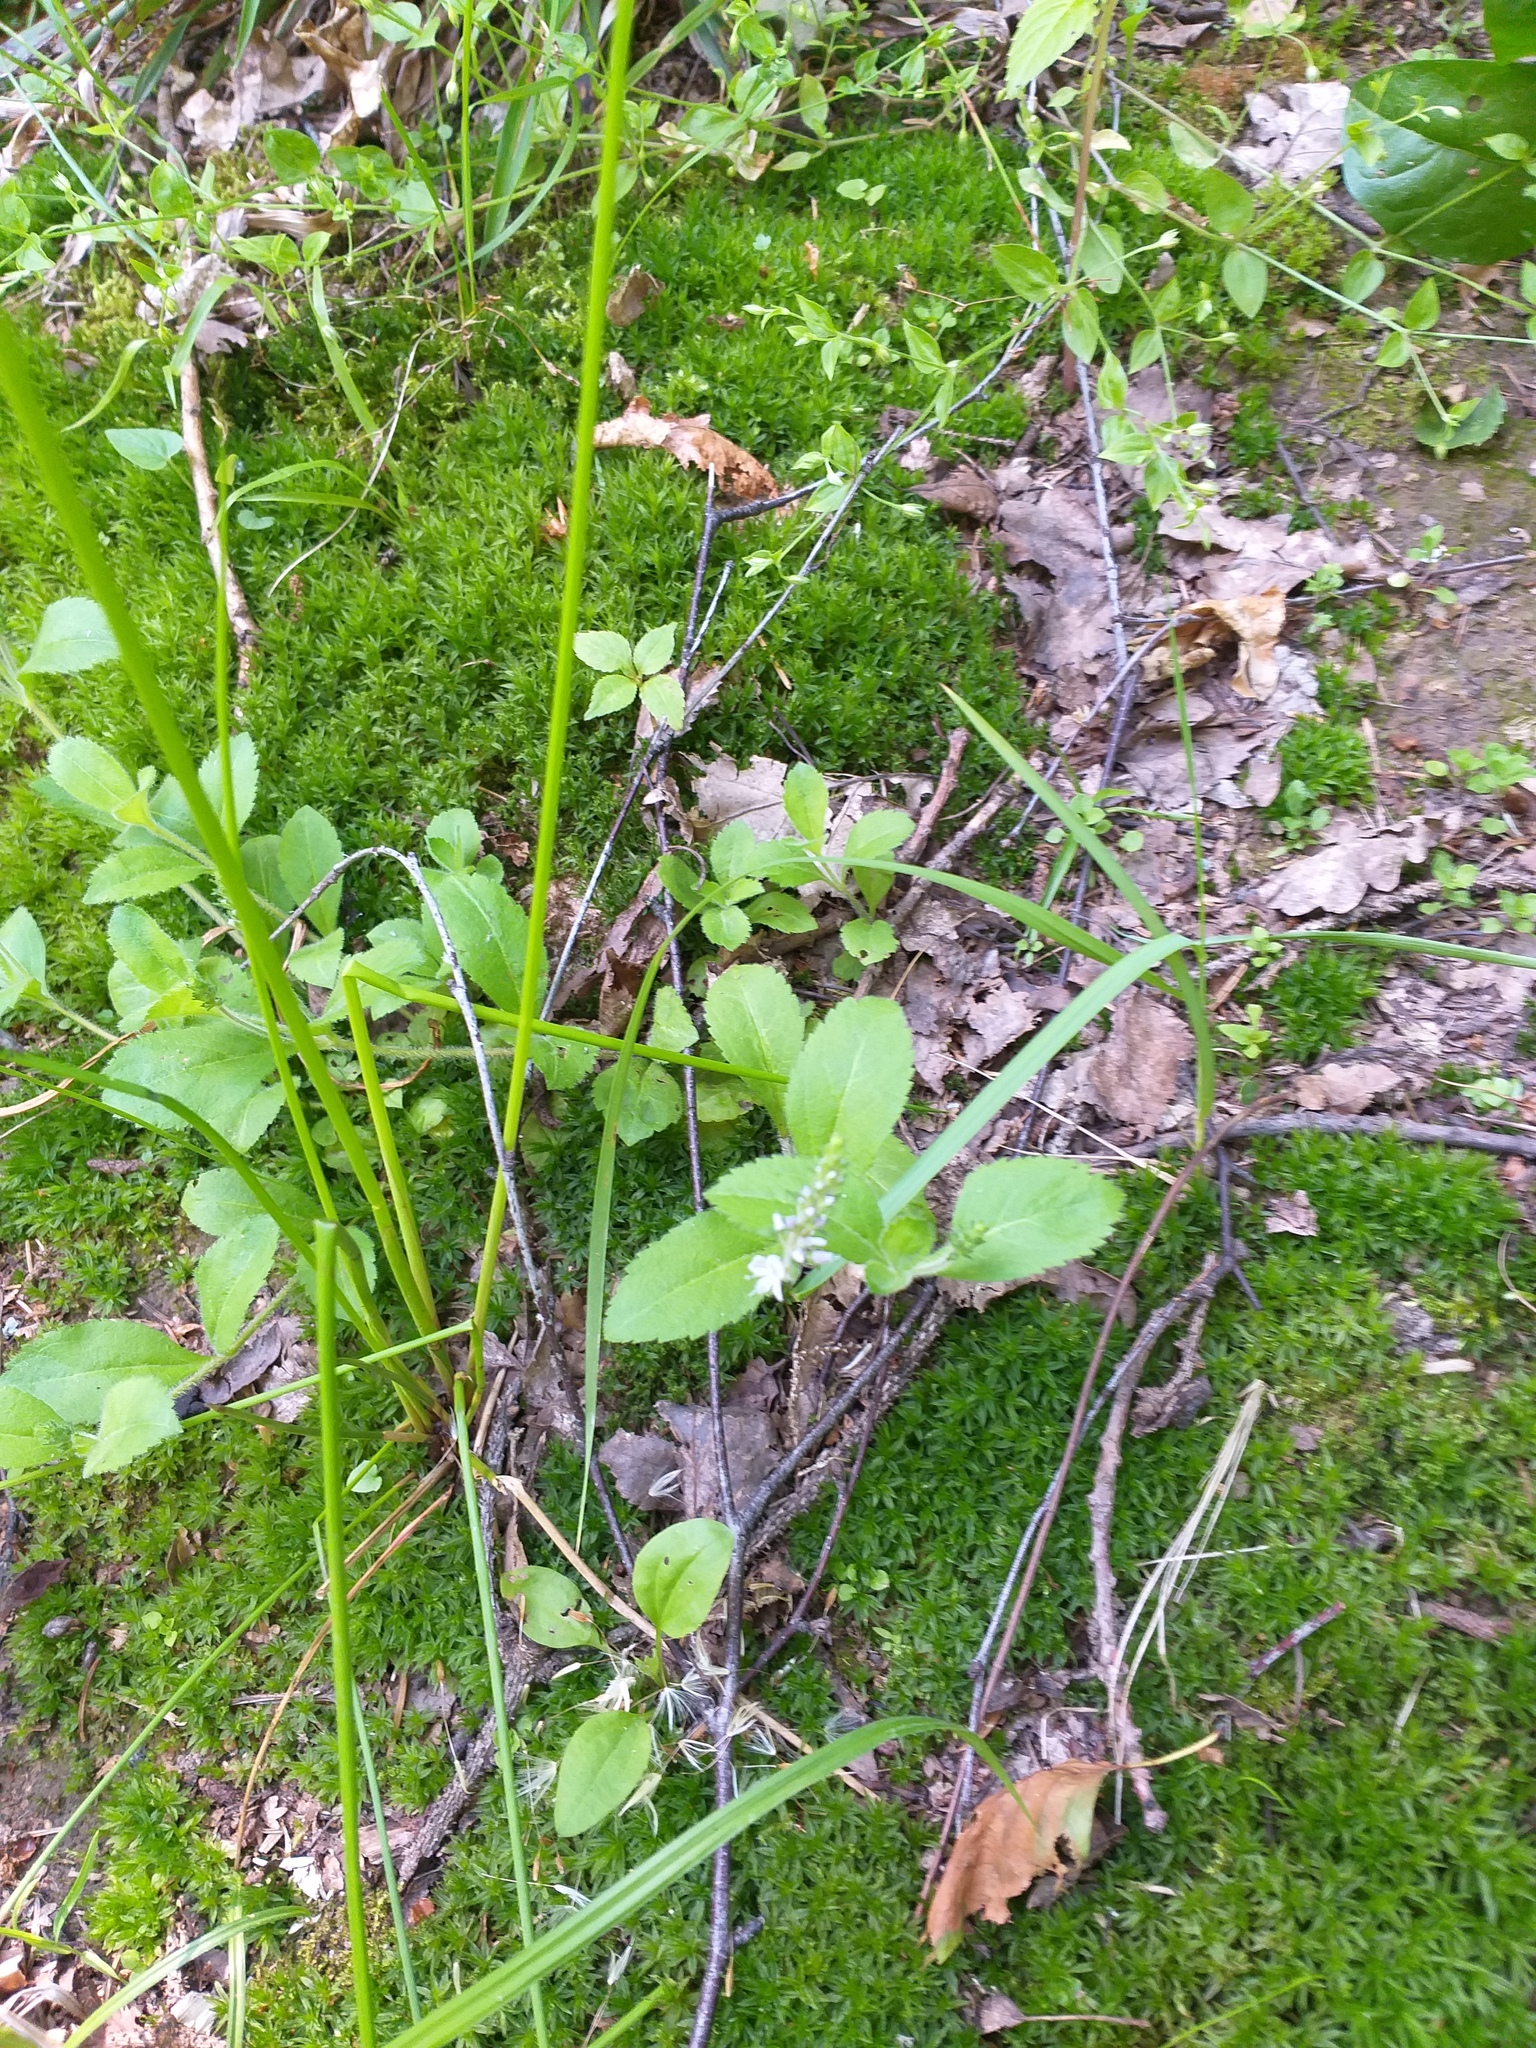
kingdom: Plantae
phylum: Tracheophyta
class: Magnoliopsida
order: Lamiales
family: Plantaginaceae
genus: Veronica
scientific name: Veronica officinalis
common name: Common speedwell
